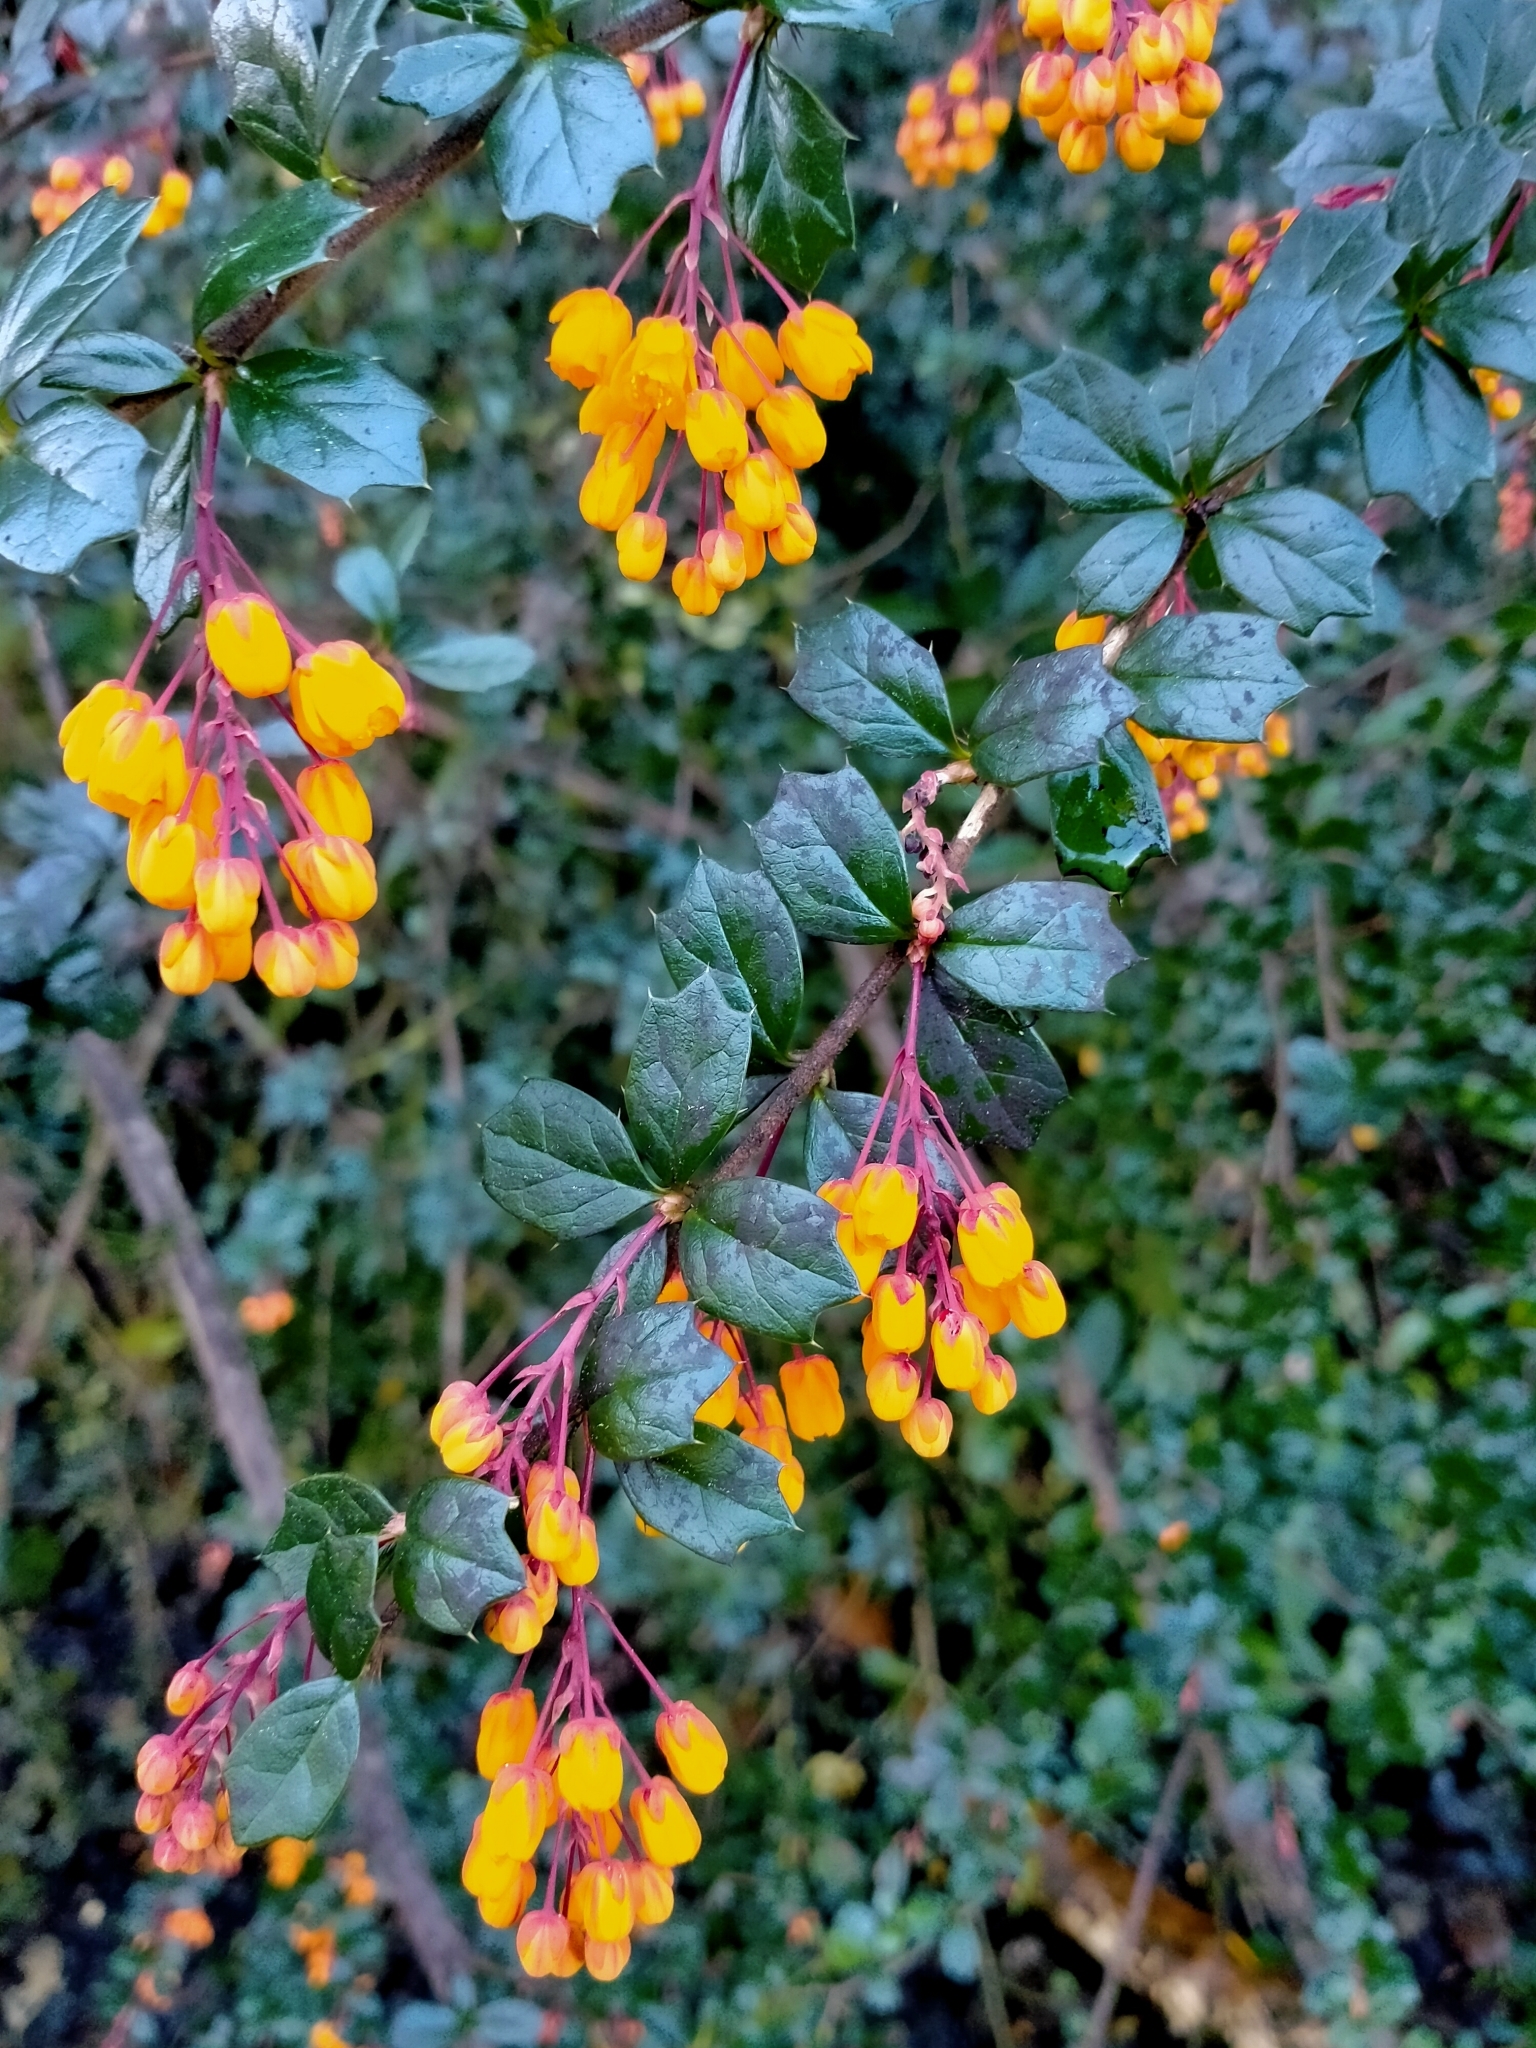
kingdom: Plantae
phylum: Tracheophyta
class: Magnoliopsida
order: Ranunculales
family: Berberidaceae
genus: Berberis
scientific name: Berberis darwinii
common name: Darwin's barberry
